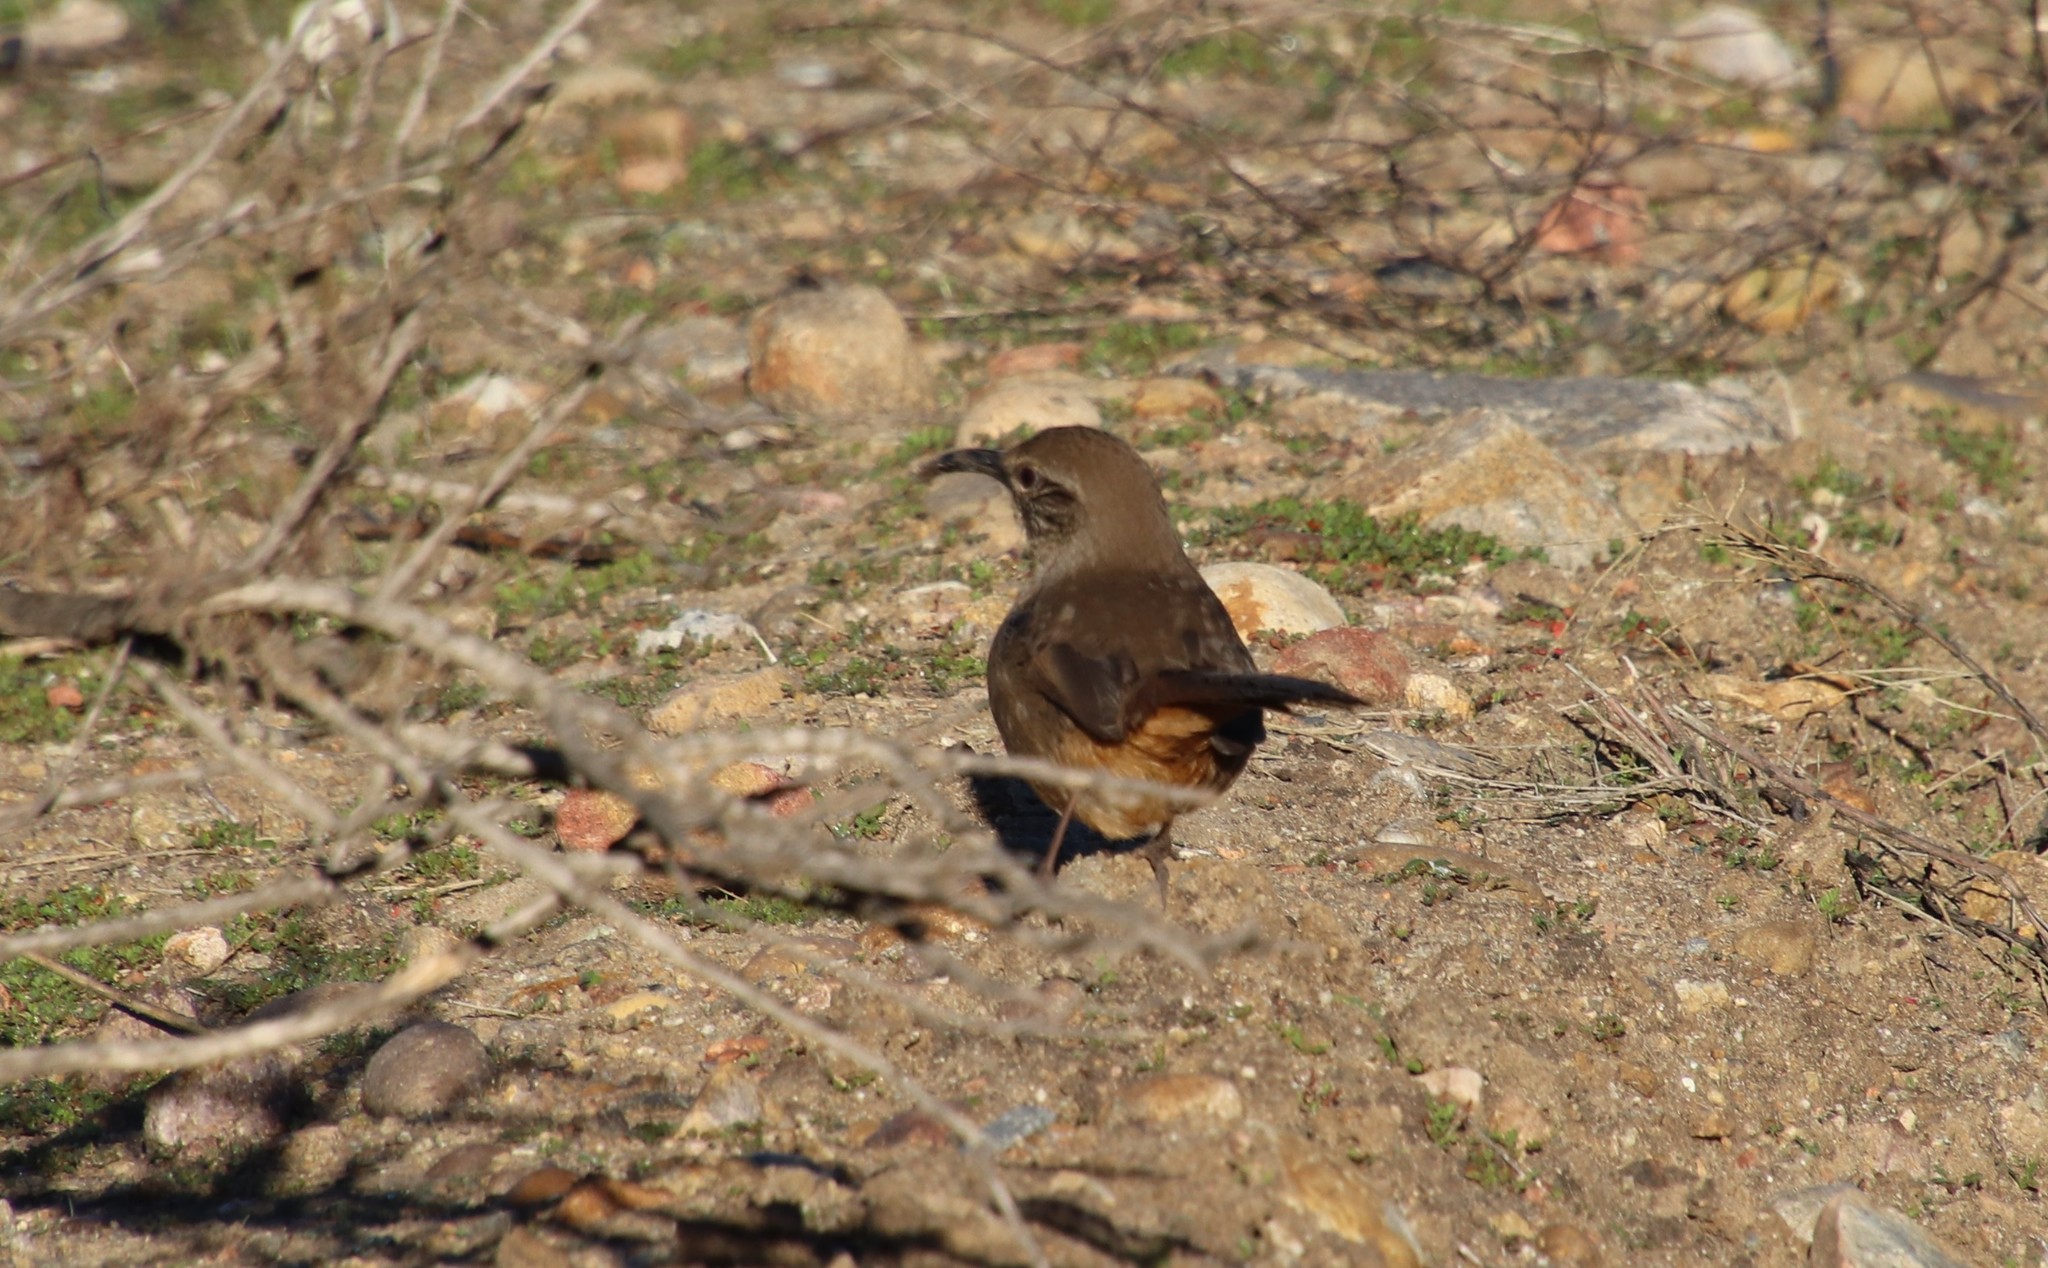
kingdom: Animalia
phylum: Chordata
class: Aves
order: Passeriformes
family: Mimidae
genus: Toxostoma
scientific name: Toxostoma redivivum
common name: California thrasher
